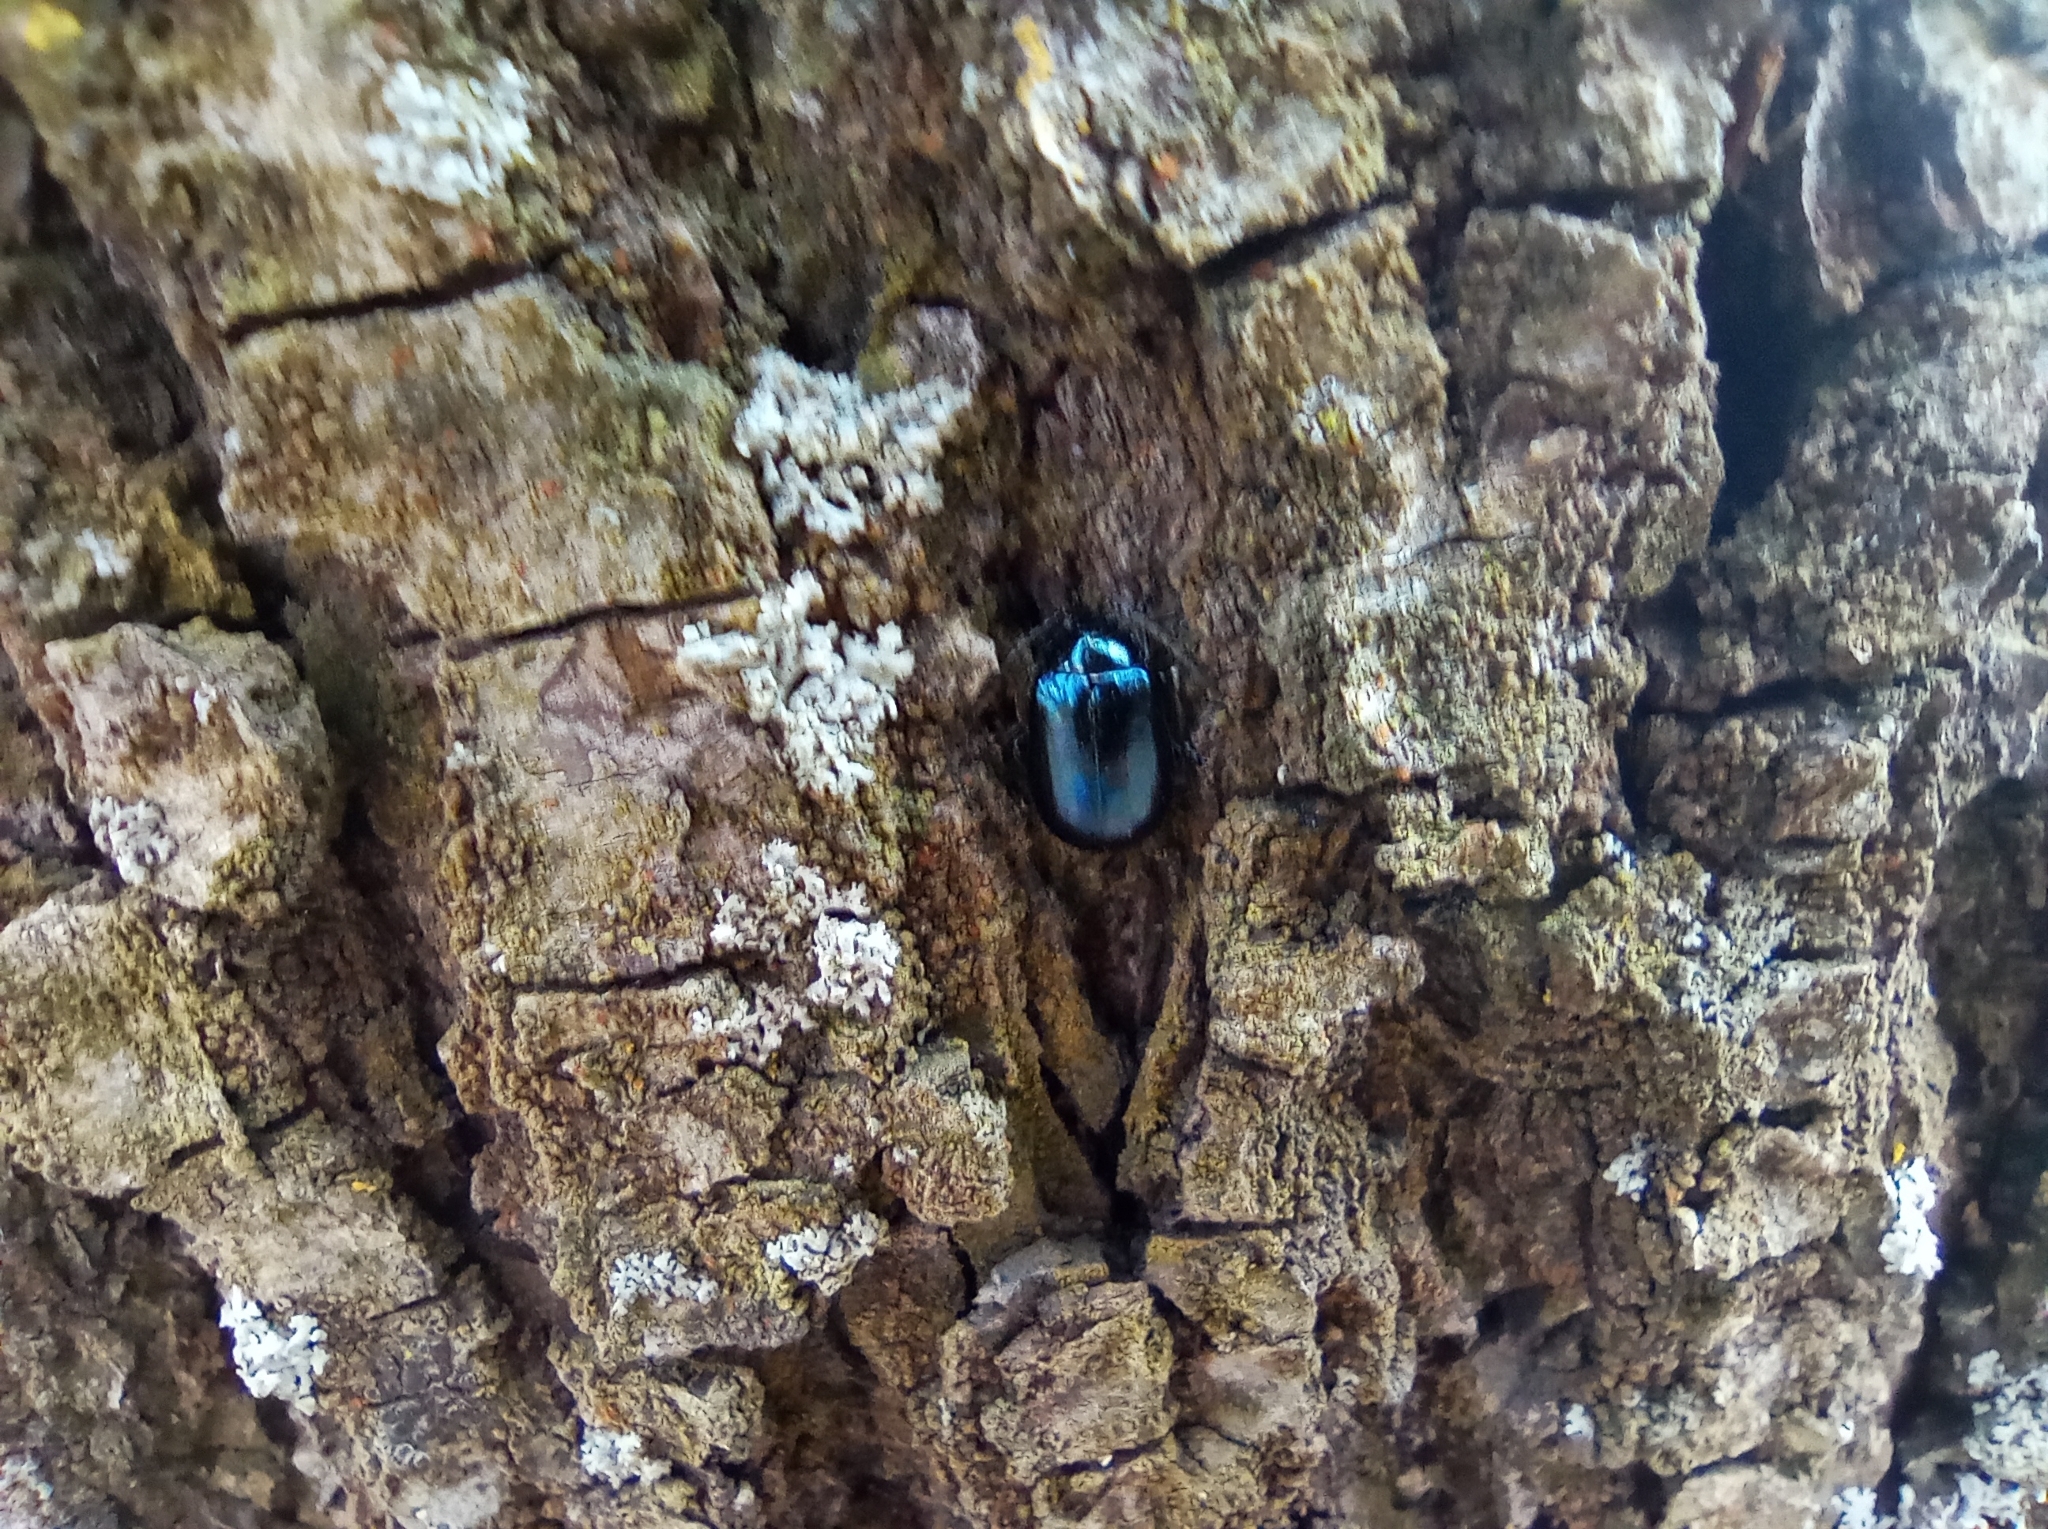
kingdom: Animalia
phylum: Arthropoda
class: Insecta
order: Coleoptera
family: Chrysomelidae
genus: Agelastica
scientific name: Agelastica alni
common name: Alder leaf beetle
